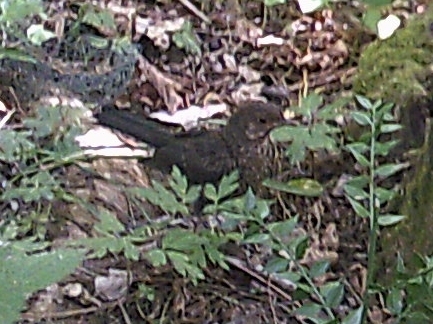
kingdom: Animalia
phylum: Chordata
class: Aves
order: Passeriformes
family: Turdidae
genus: Turdus
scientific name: Turdus merula
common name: Common blackbird
